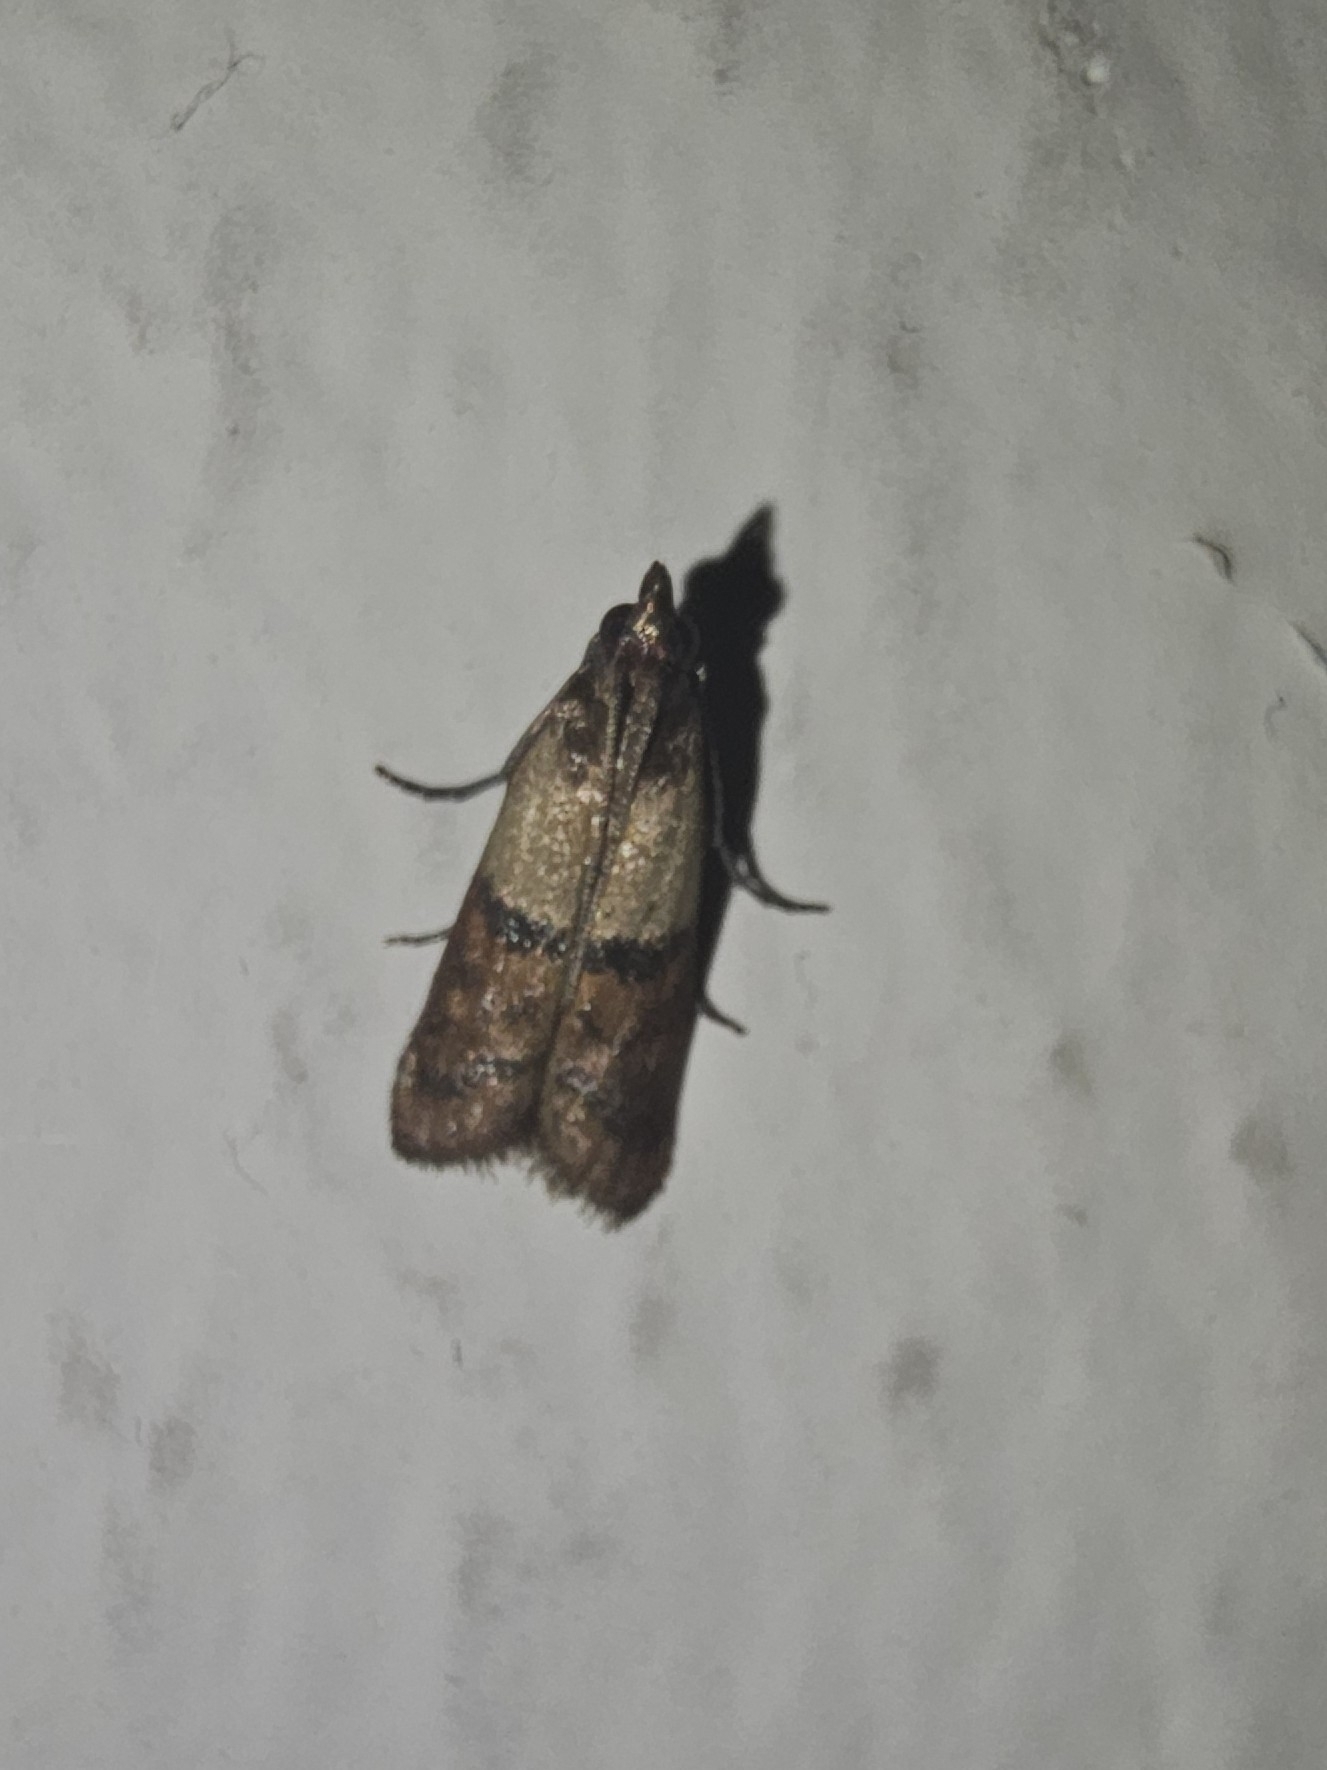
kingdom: Animalia
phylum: Arthropoda
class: Insecta
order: Lepidoptera
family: Pyralidae
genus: Plodia
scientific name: Plodia interpunctella
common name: Indian meal moth
